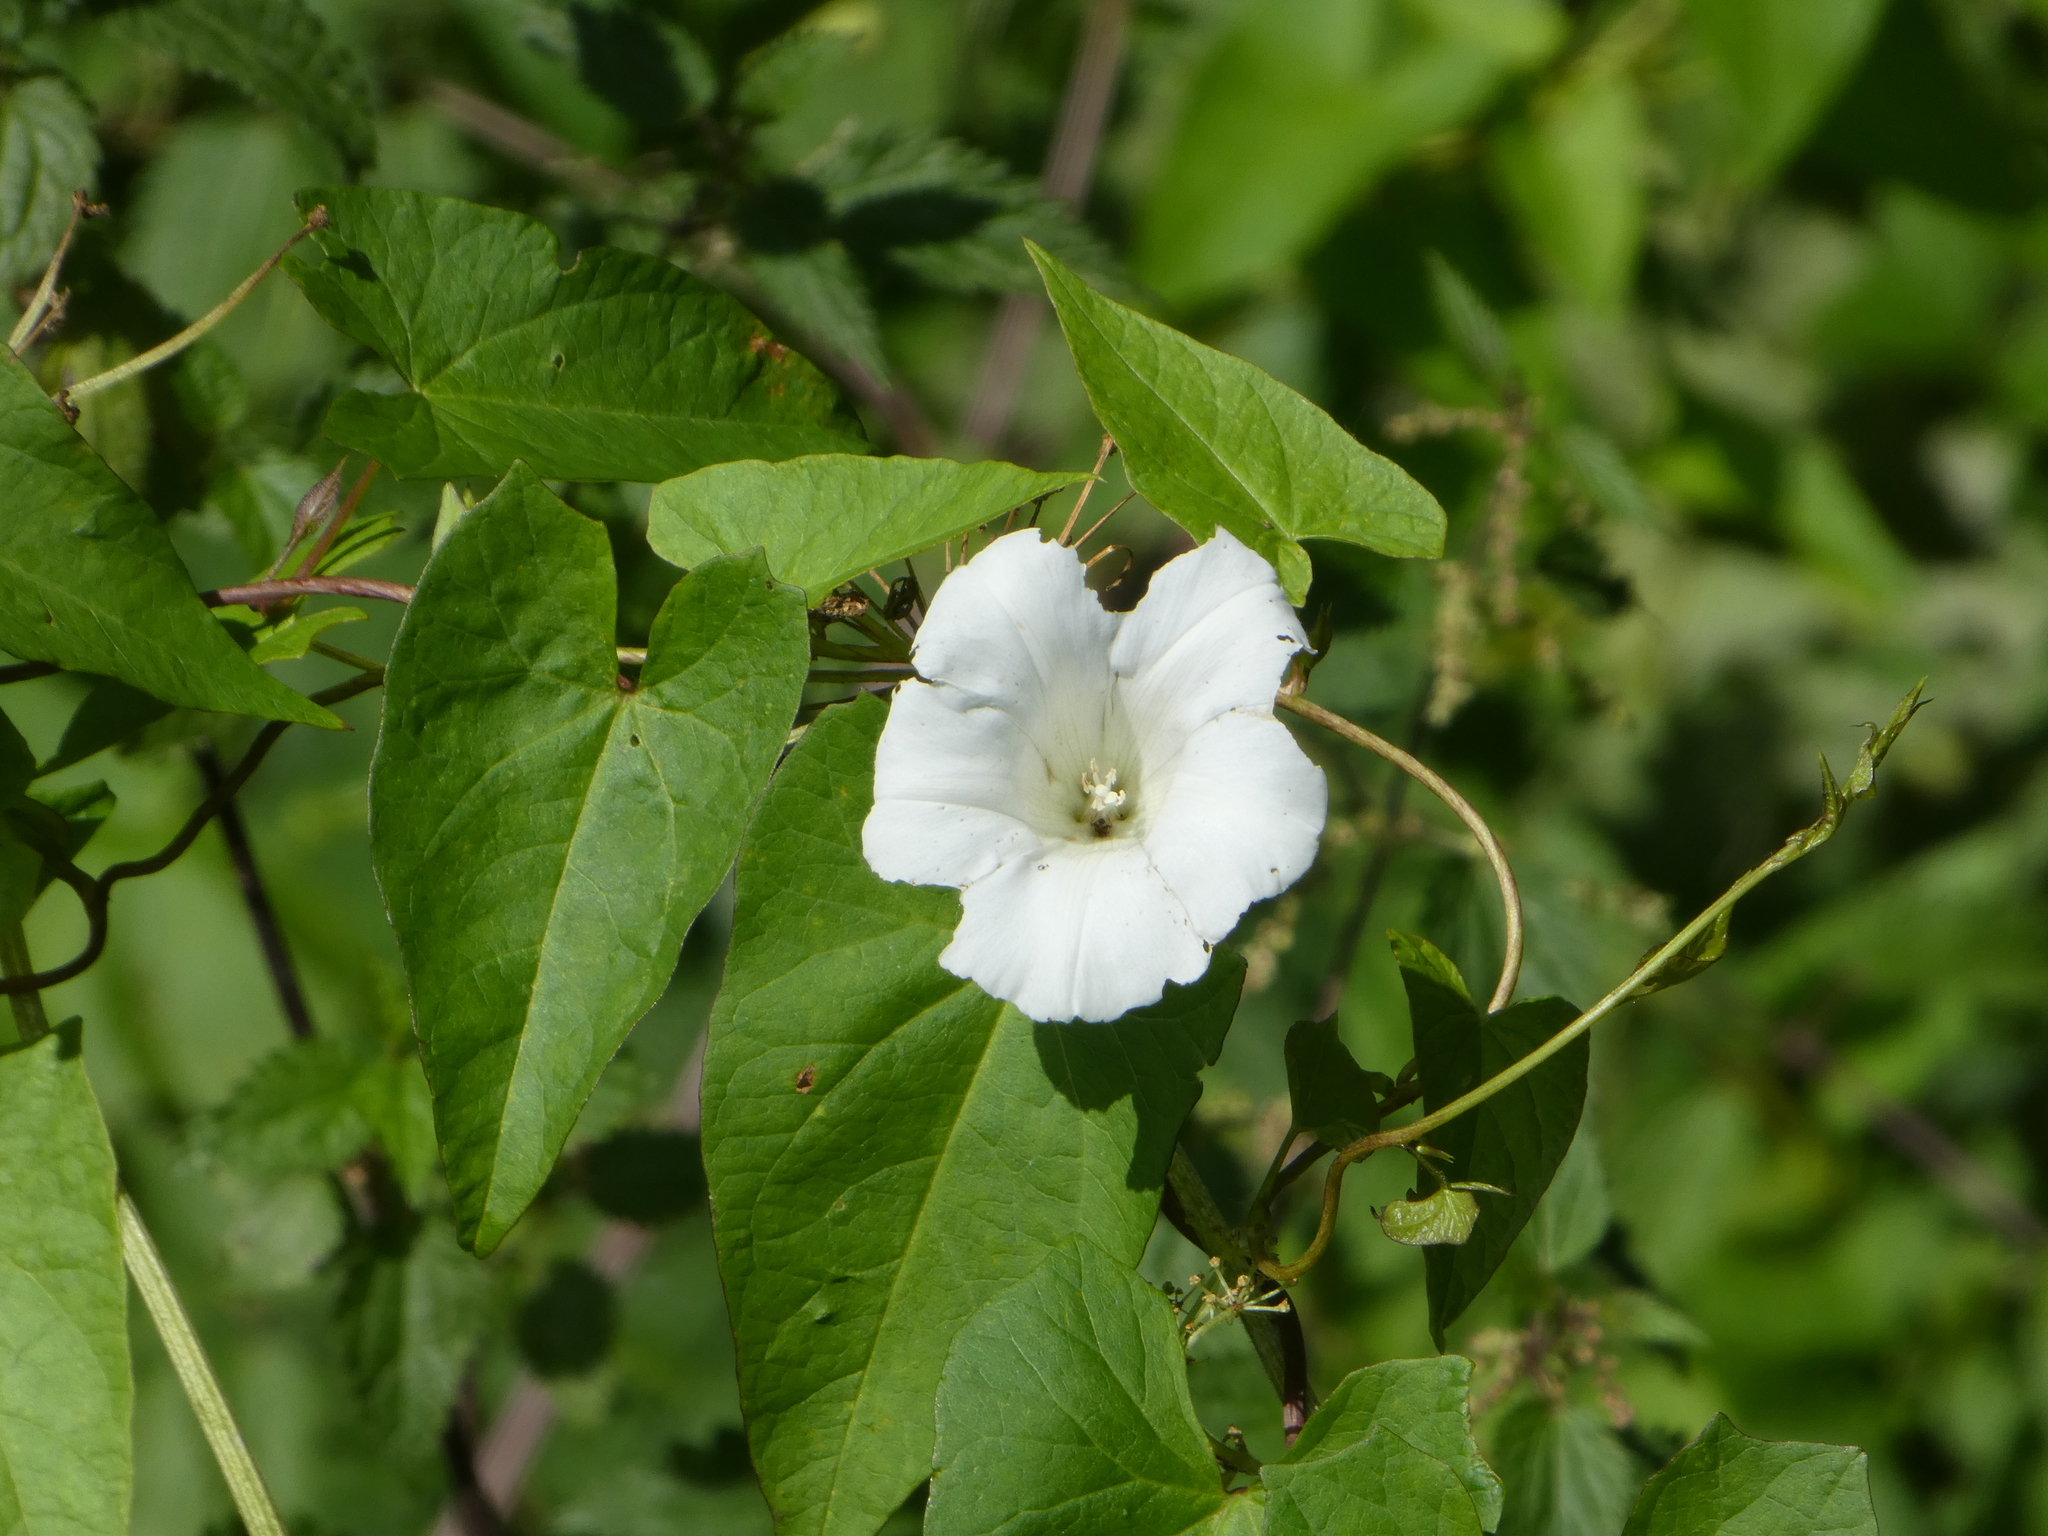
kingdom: Plantae
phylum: Tracheophyta
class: Magnoliopsida
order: Solanales
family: Convolvulaceae
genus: Calystegia
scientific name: Calystegia
